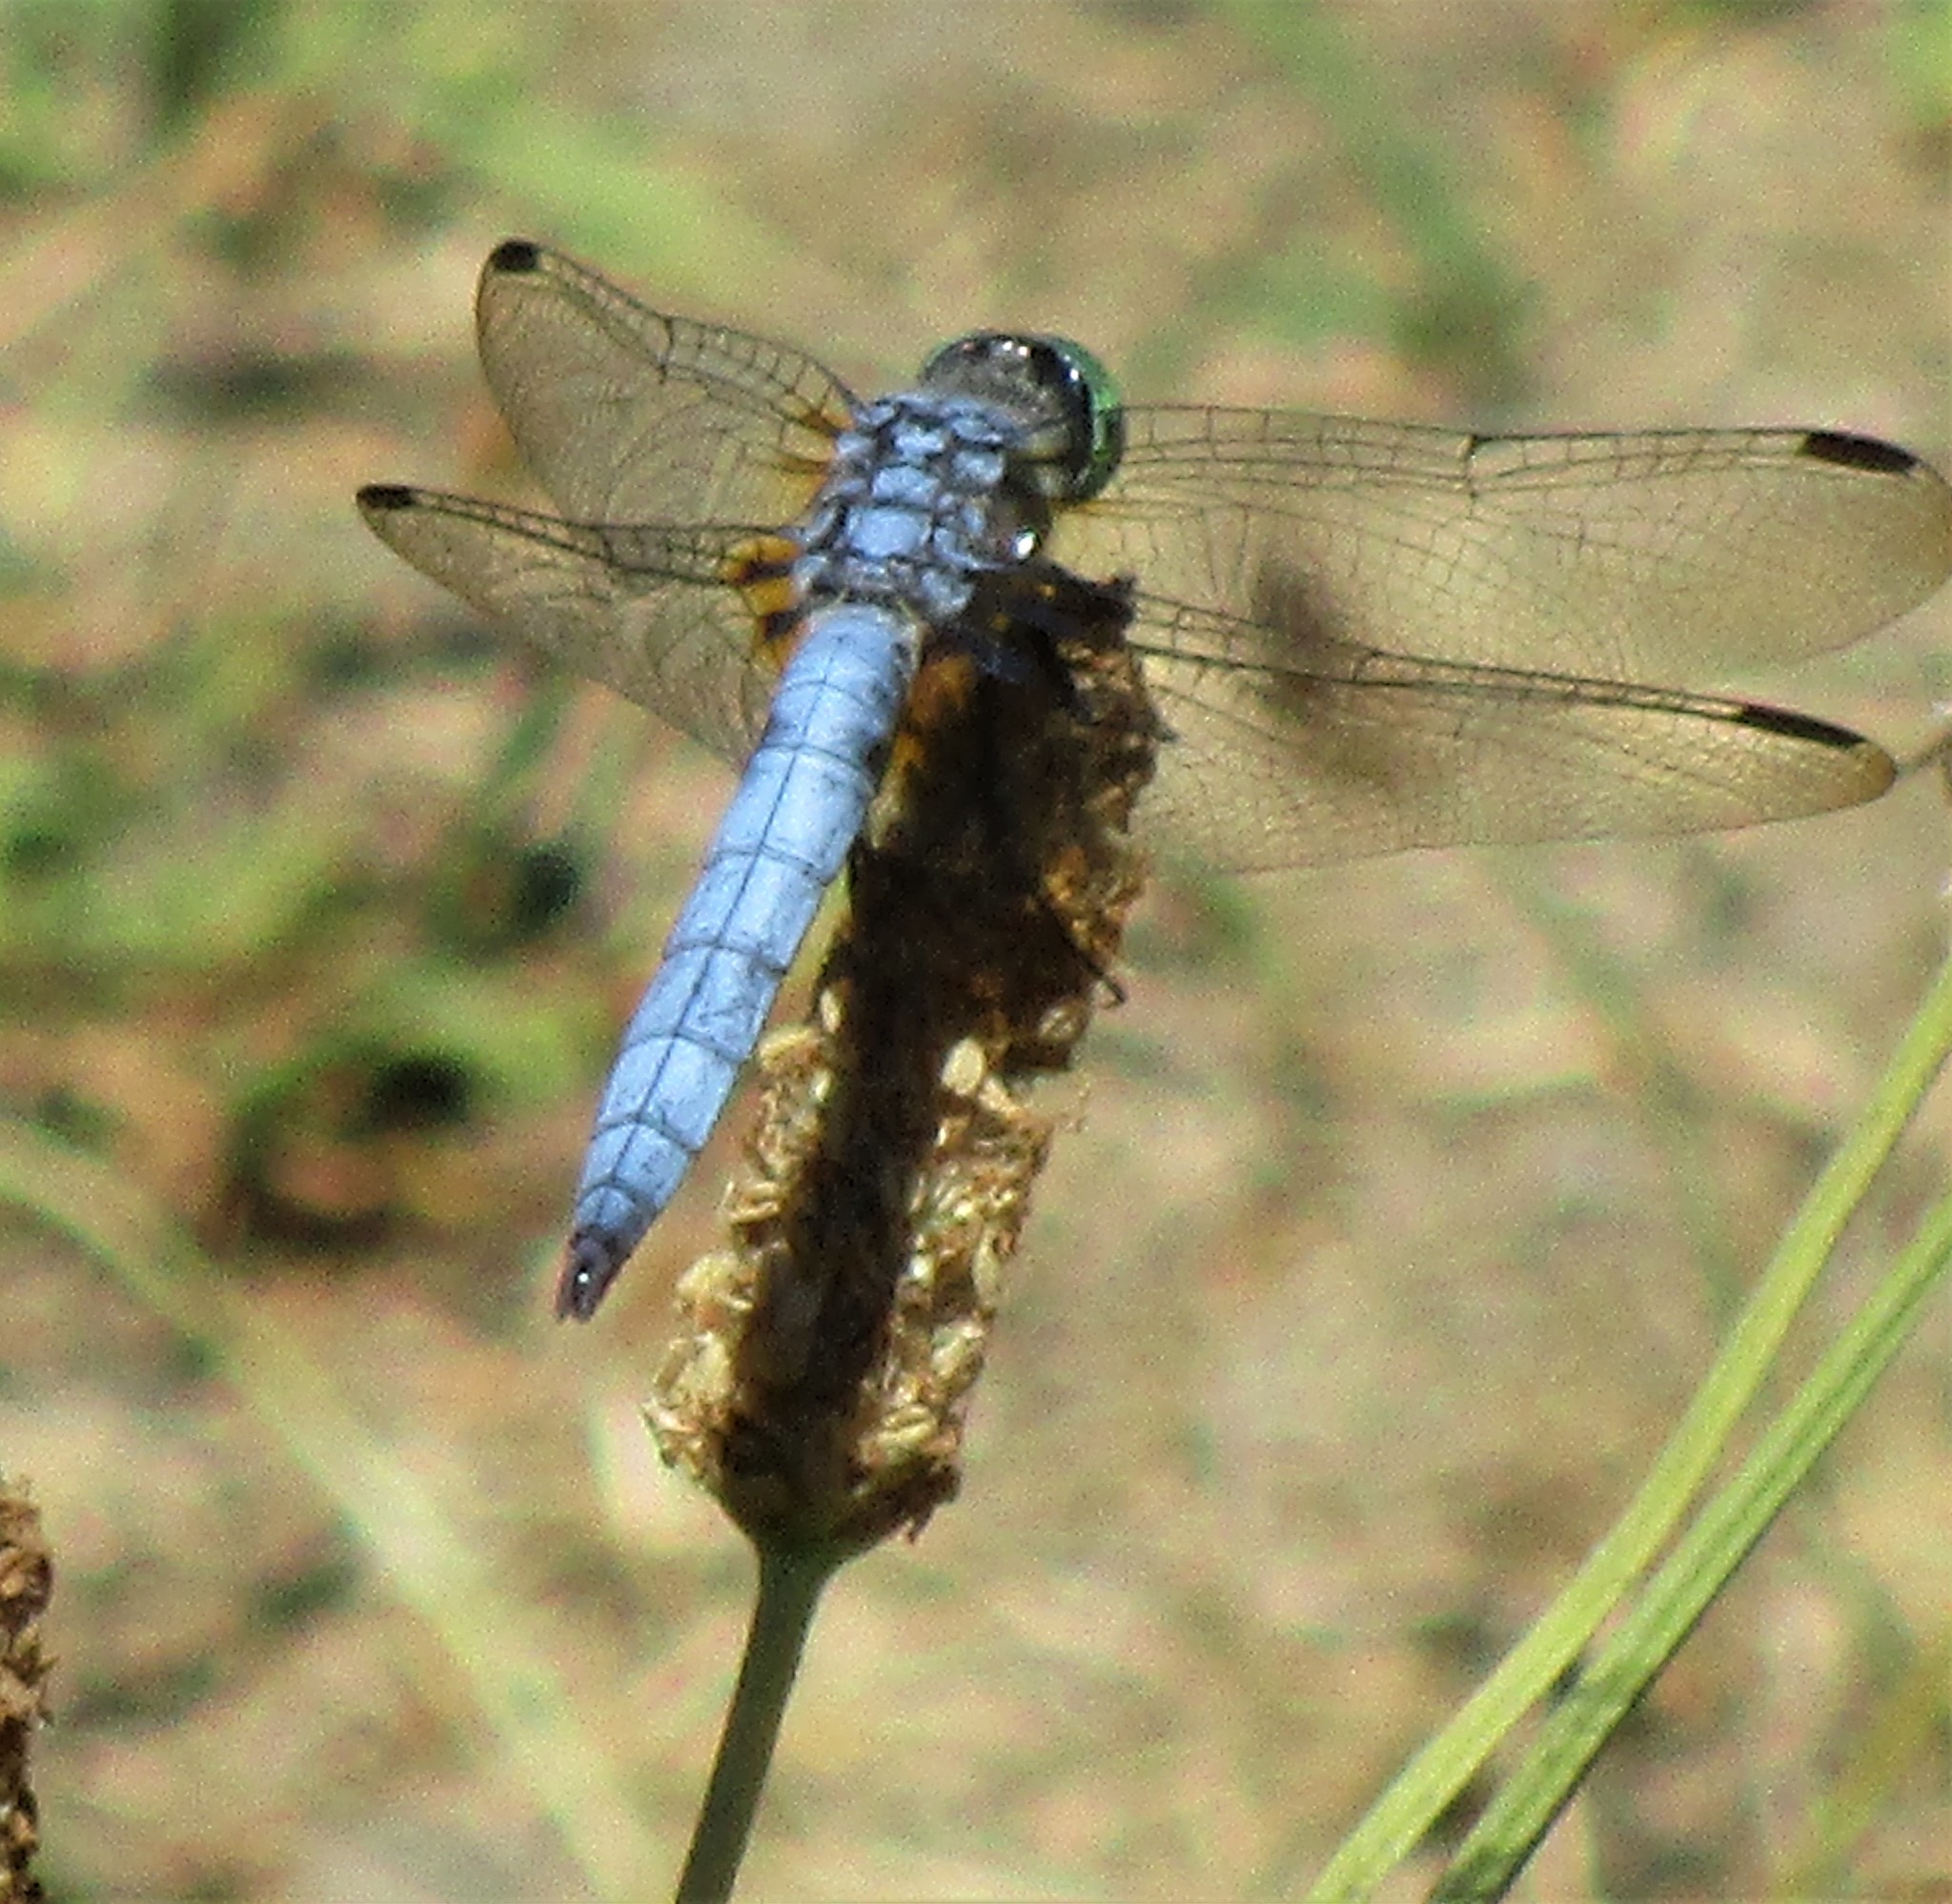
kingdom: Animalia
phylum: Arthropoda
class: Insecta
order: Odonata
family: Libellulidae
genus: Pachydiplax
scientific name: Pachydiplax longipennis
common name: Blue dasher
